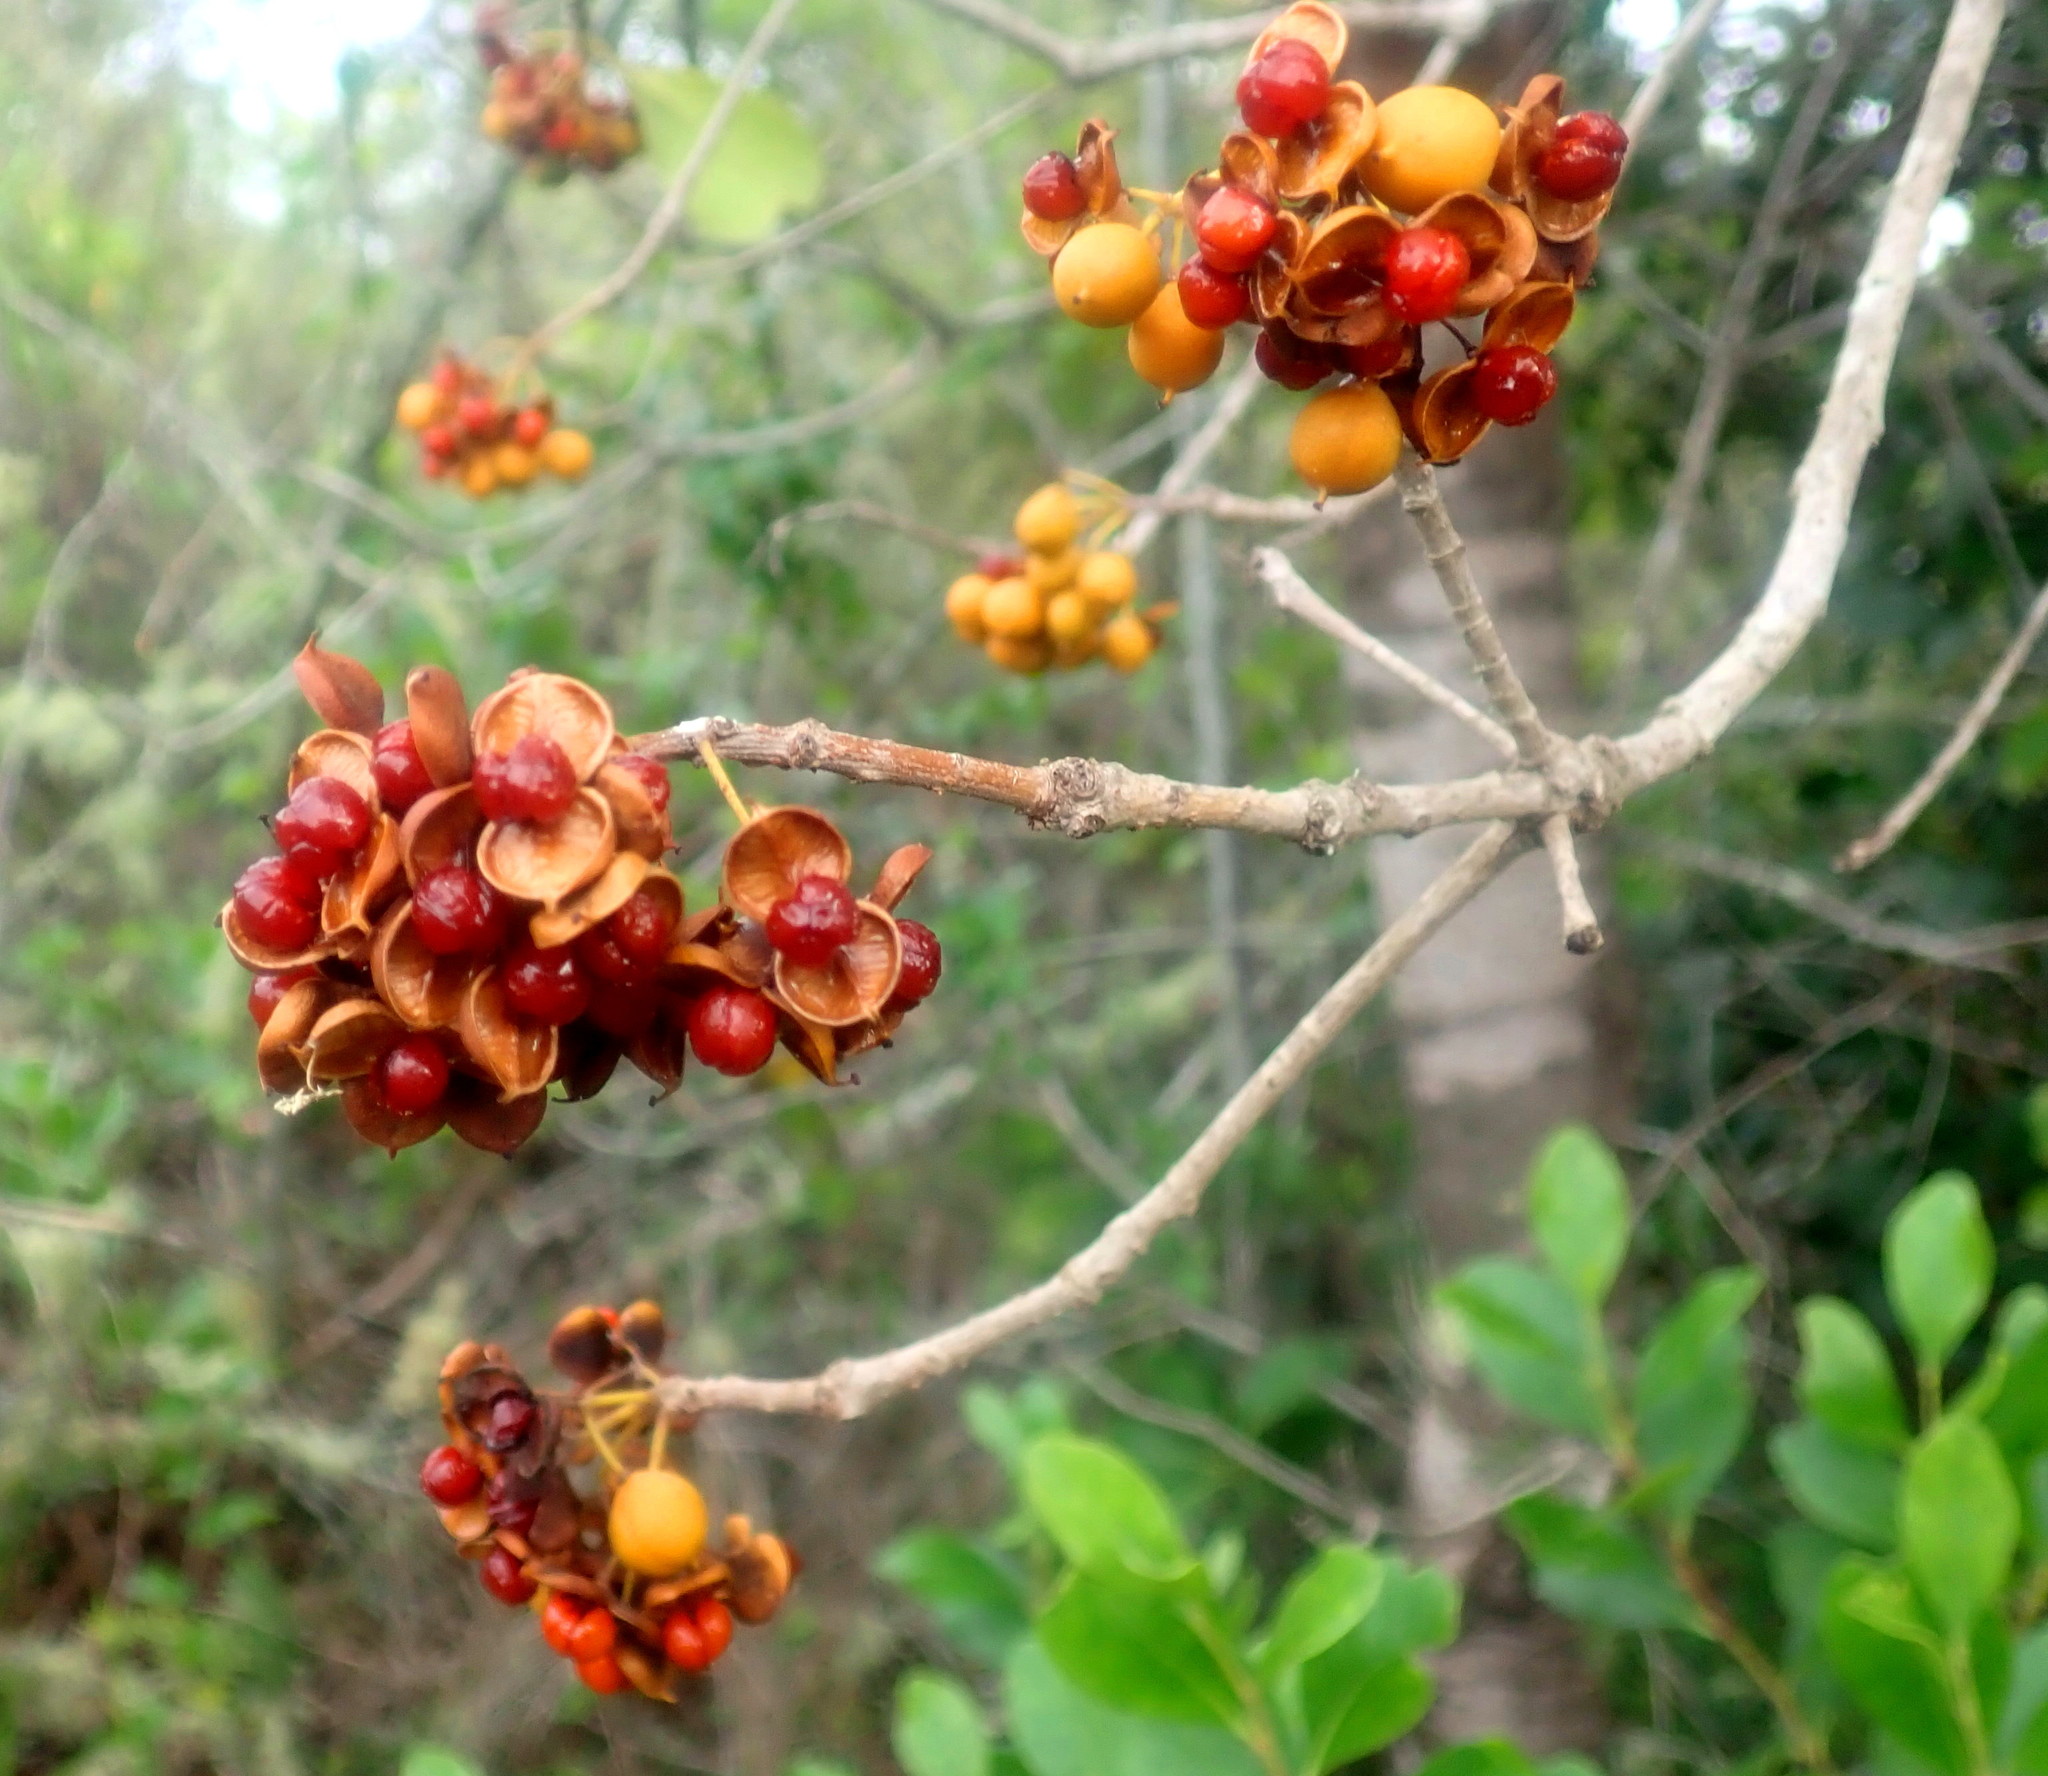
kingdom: Plantae
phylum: Tracheophyta
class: Magnoliopsida
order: Apiales
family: Pittosporaceae
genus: Pittosporum
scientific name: Pittosporum viridiflorum
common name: Cape cheesewood
